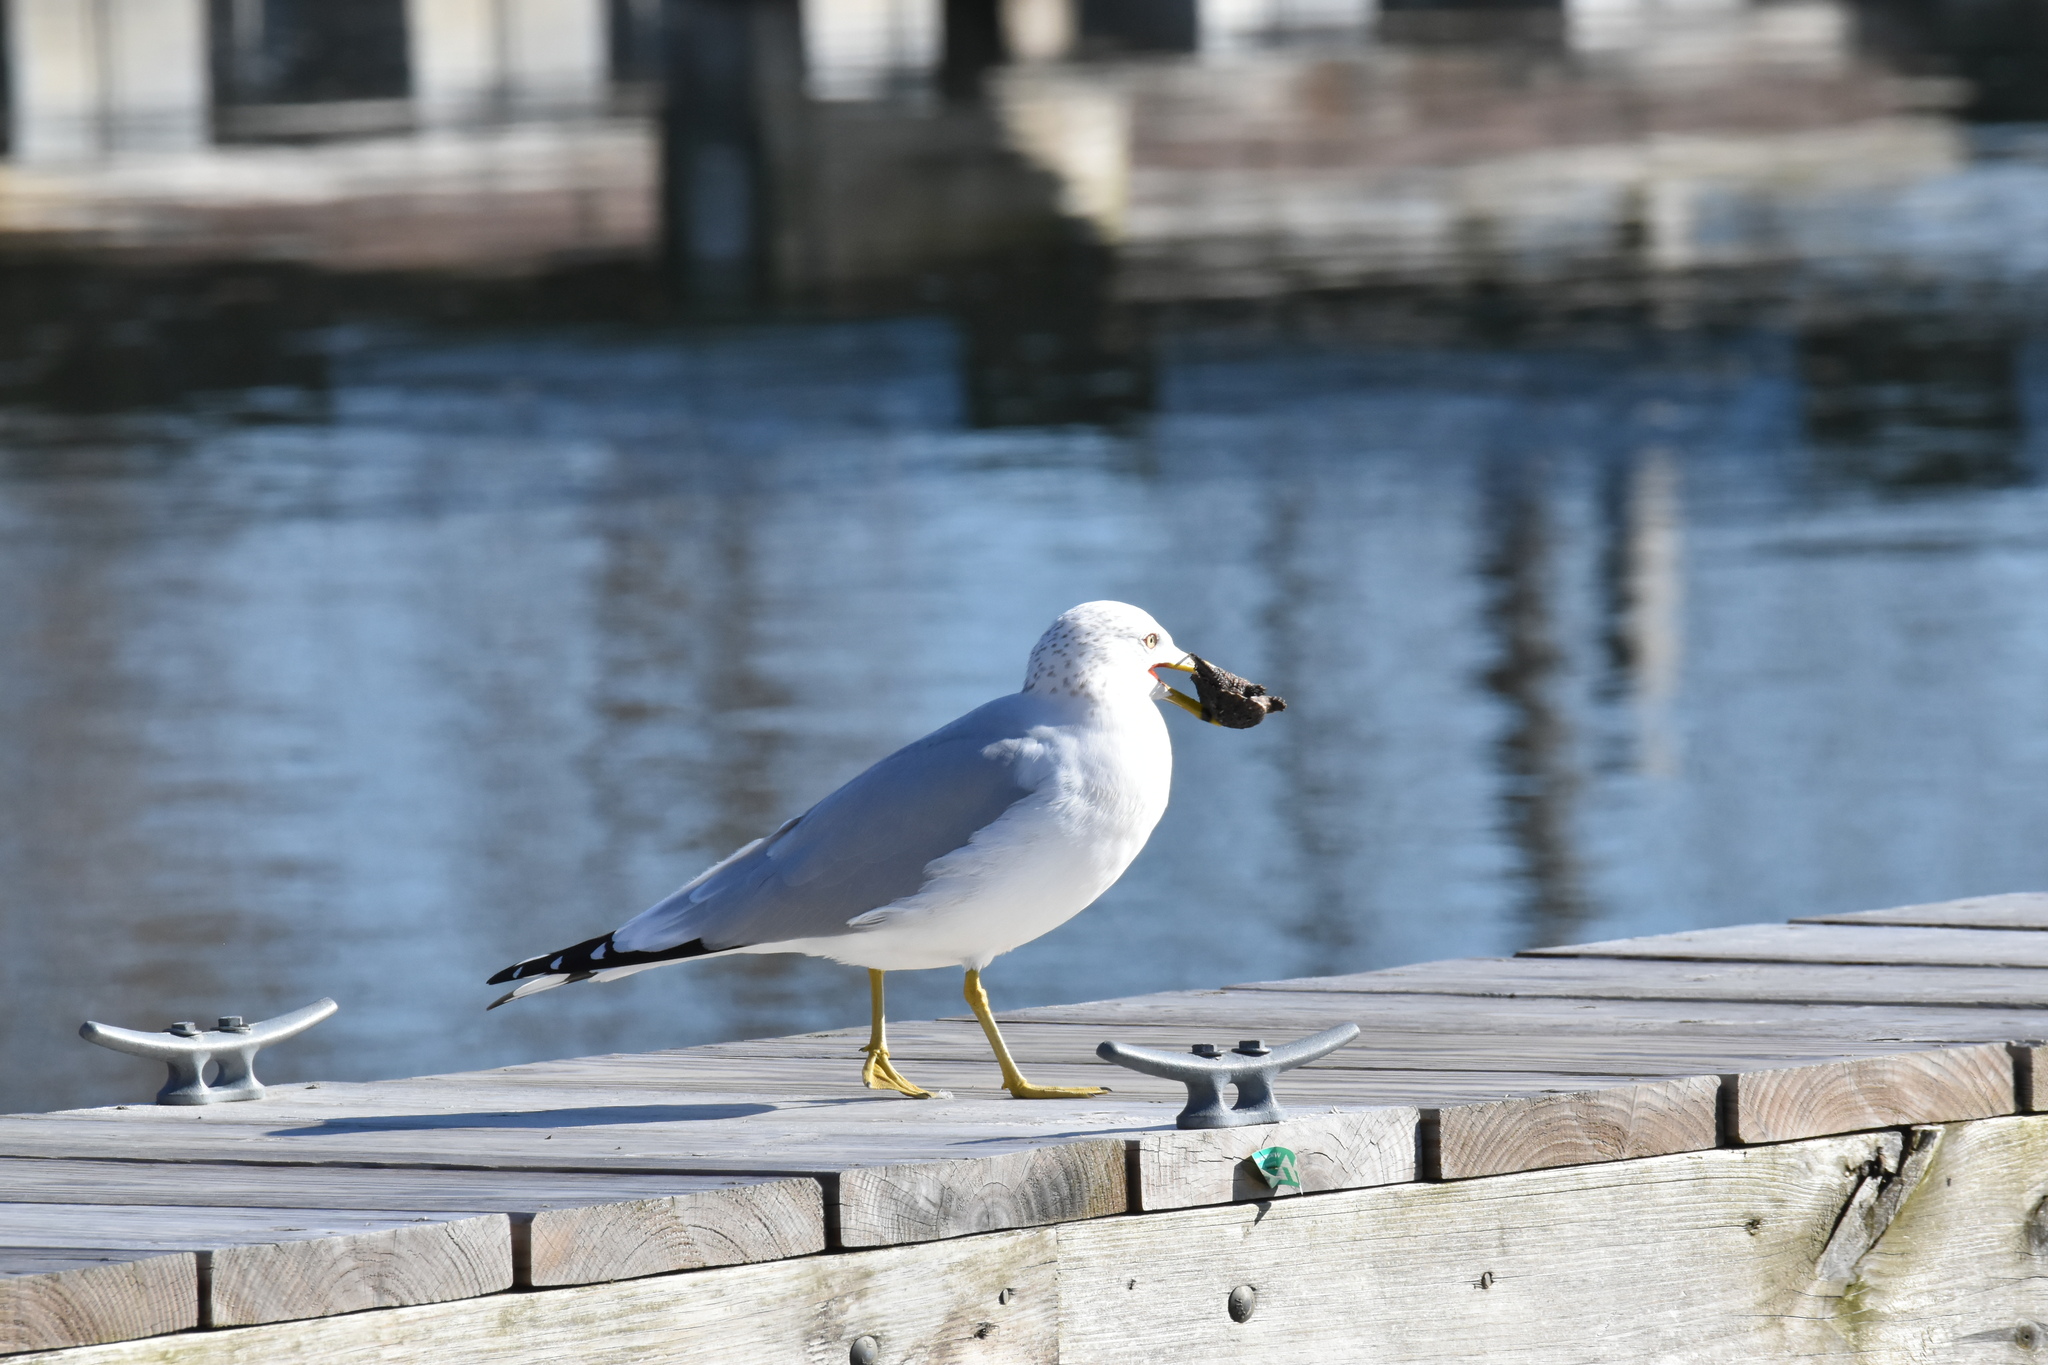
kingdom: Animalia
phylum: Chordata
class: Aves
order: Charadriiformes
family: Laridae
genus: Larus
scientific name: Larus delawarensis
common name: Ring-billed gull
